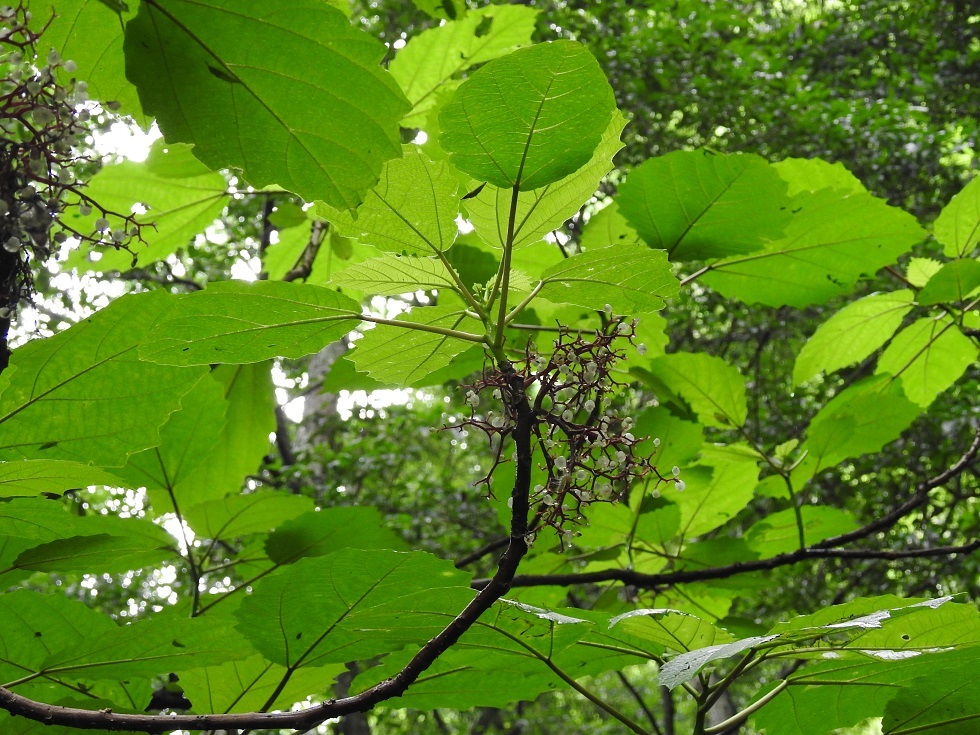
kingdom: Plantae
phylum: Tracheophyta
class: Magnoliopsida
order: Rosales
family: Urticaceae
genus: Urera
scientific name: Urera baccifera
